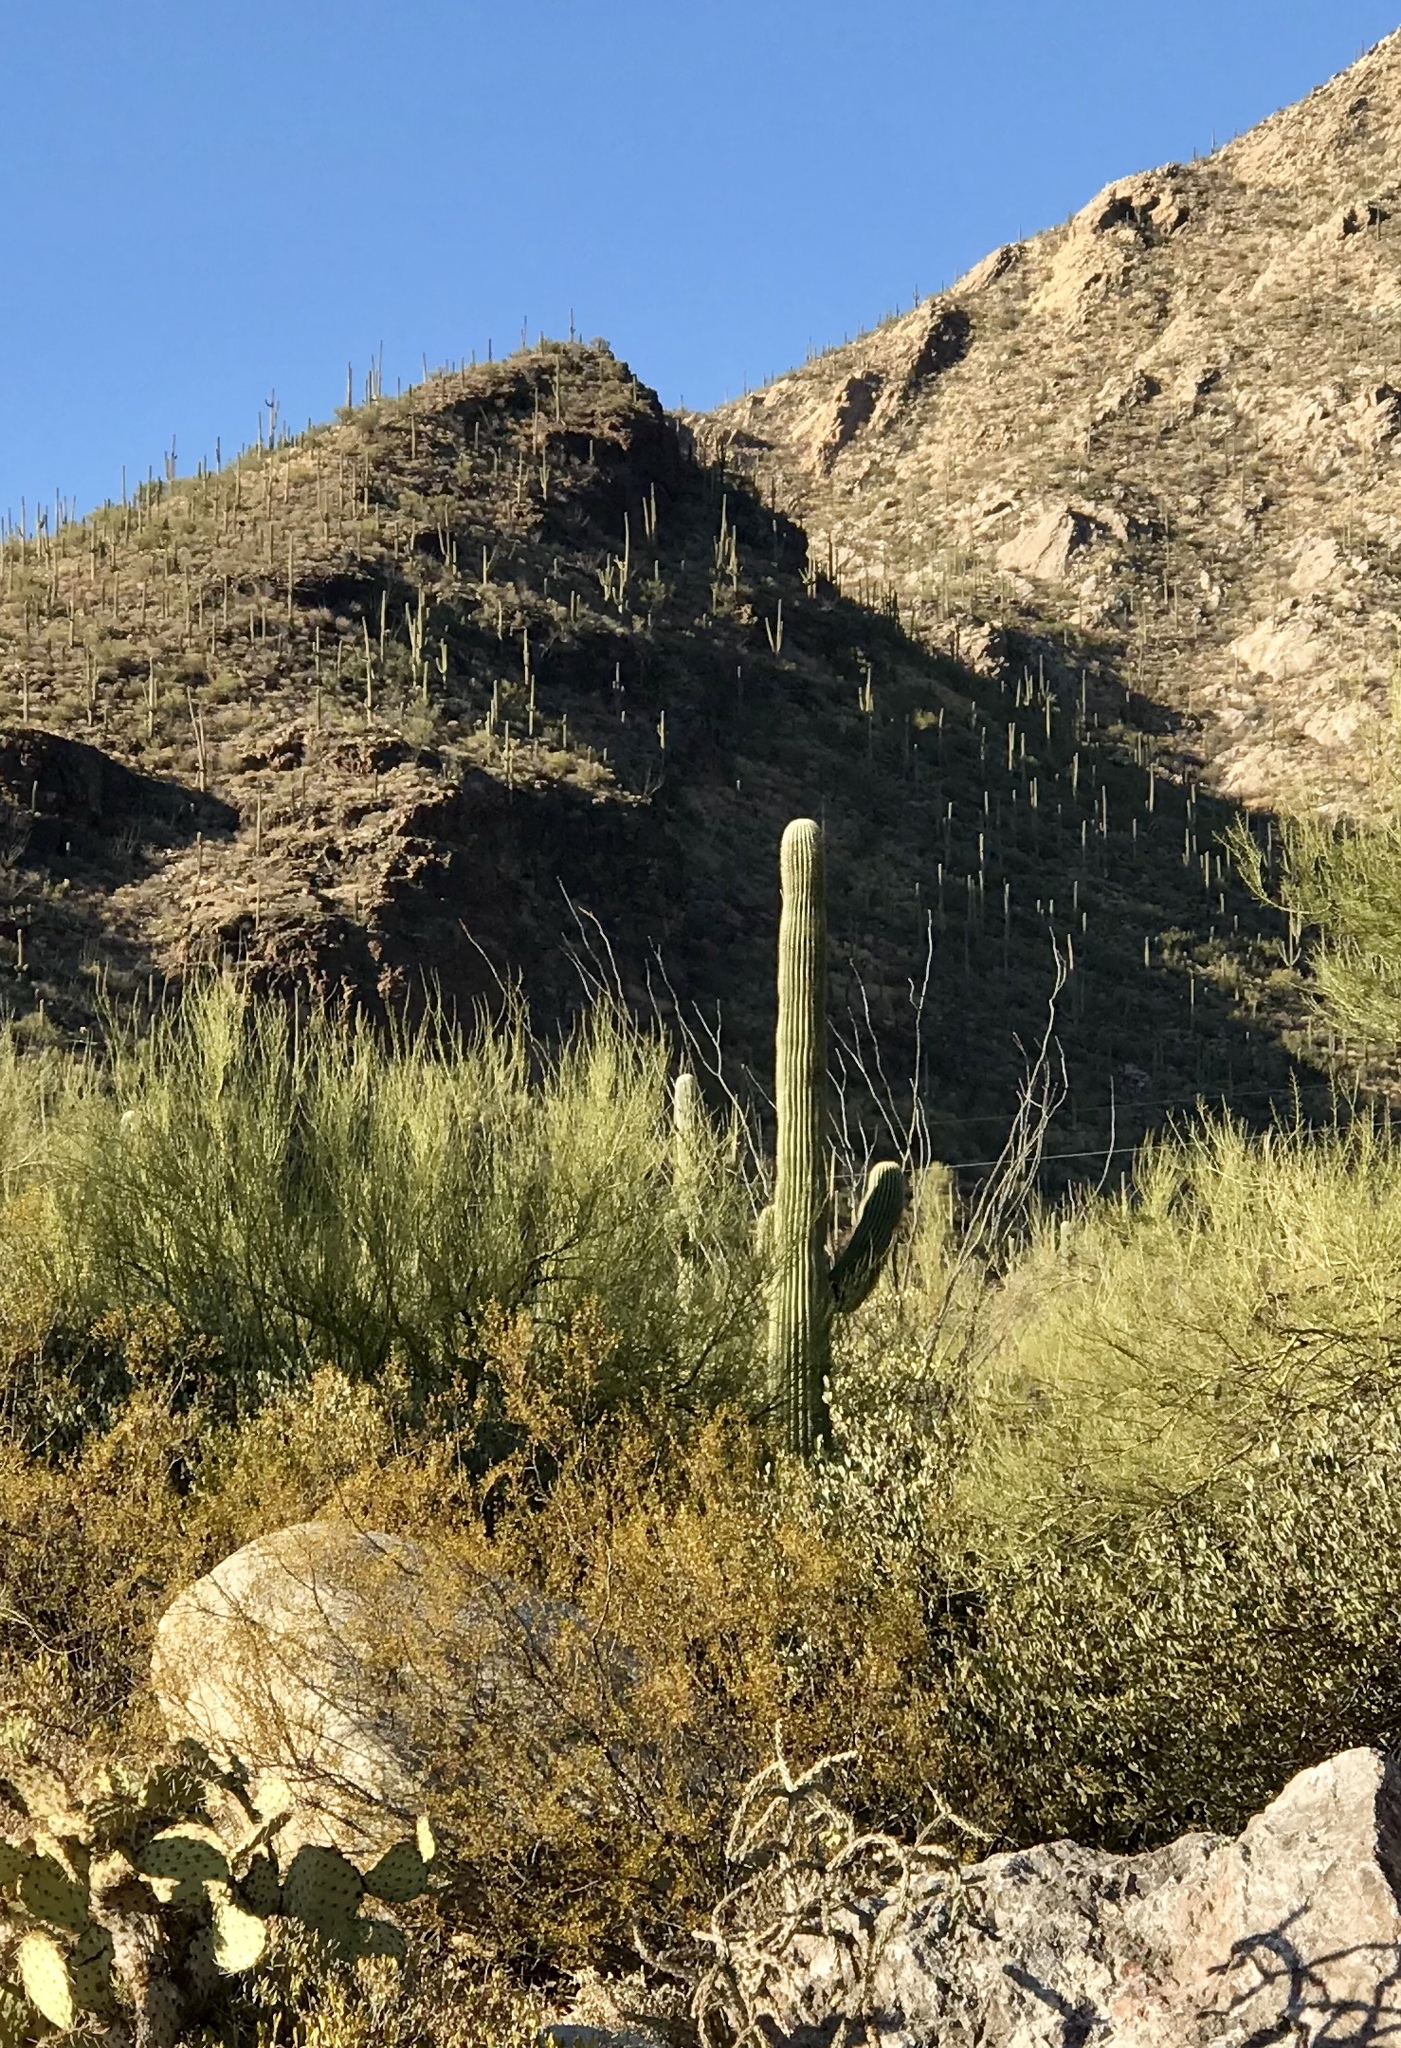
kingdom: Plantae
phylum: Tracheophyta
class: Magnoliopsida
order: Caryophyllales
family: Cactaceae
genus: Carnegiea
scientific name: Carnegiea gigantea
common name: Saguaro
